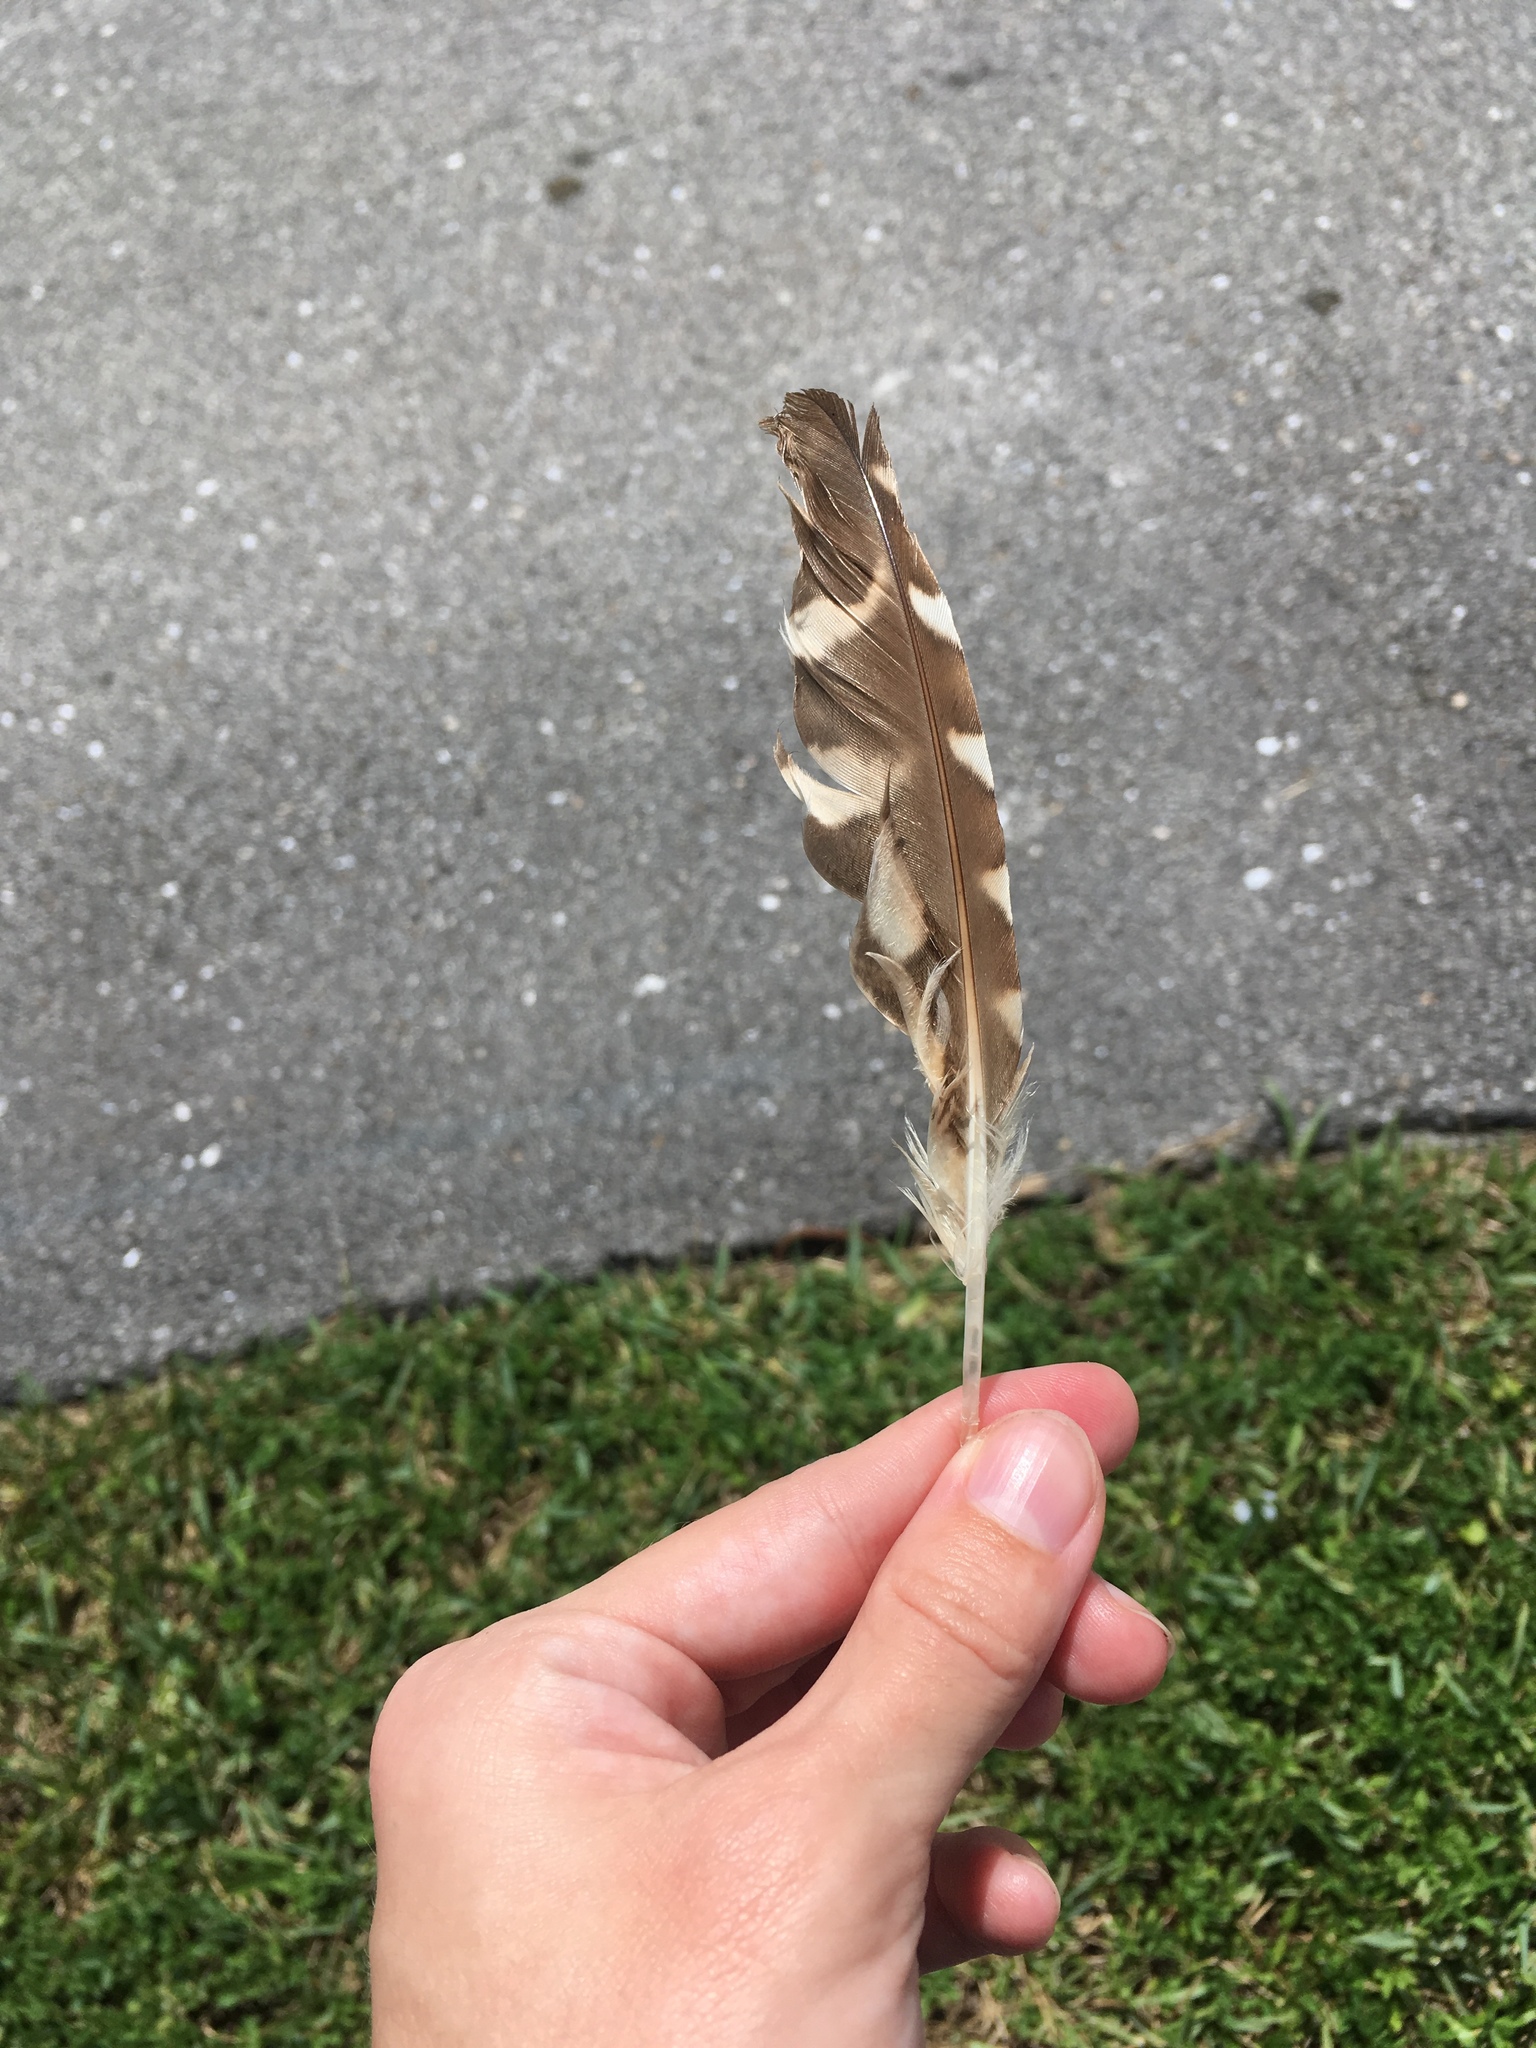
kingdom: Animalia
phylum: Chordata
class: Aves
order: Strigiformes
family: Strigidae
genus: Athene
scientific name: Athene cunicularia
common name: Burrowing owl
